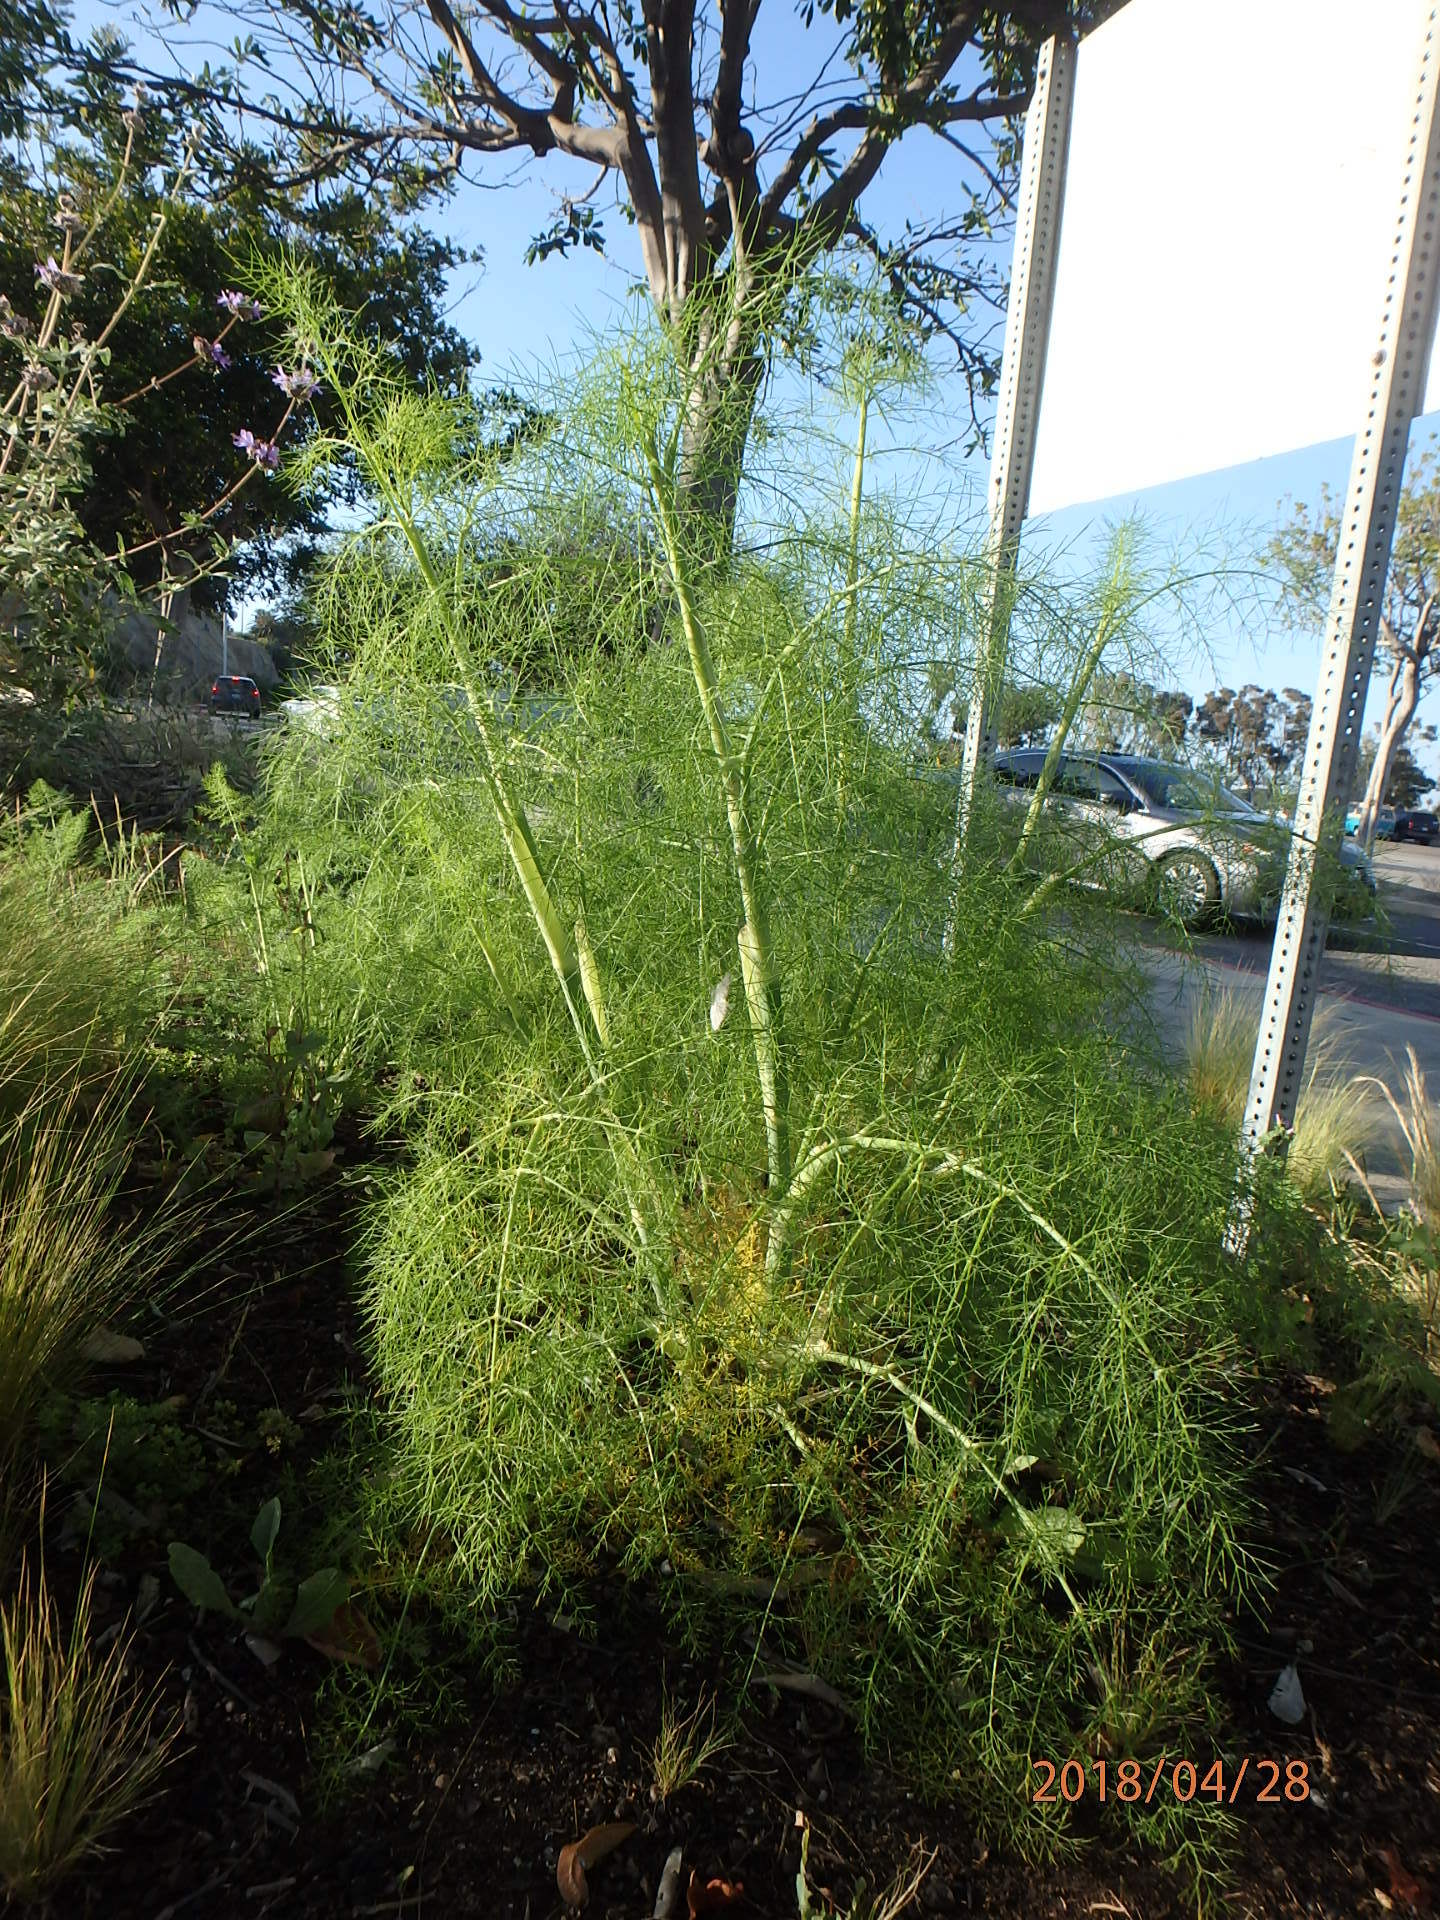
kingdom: Plantae
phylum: Tracheophyta
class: Magnoliopsida
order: Apiales
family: Apiaceae
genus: Foeniculum
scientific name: Foeniculum vulgare
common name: Fennel
